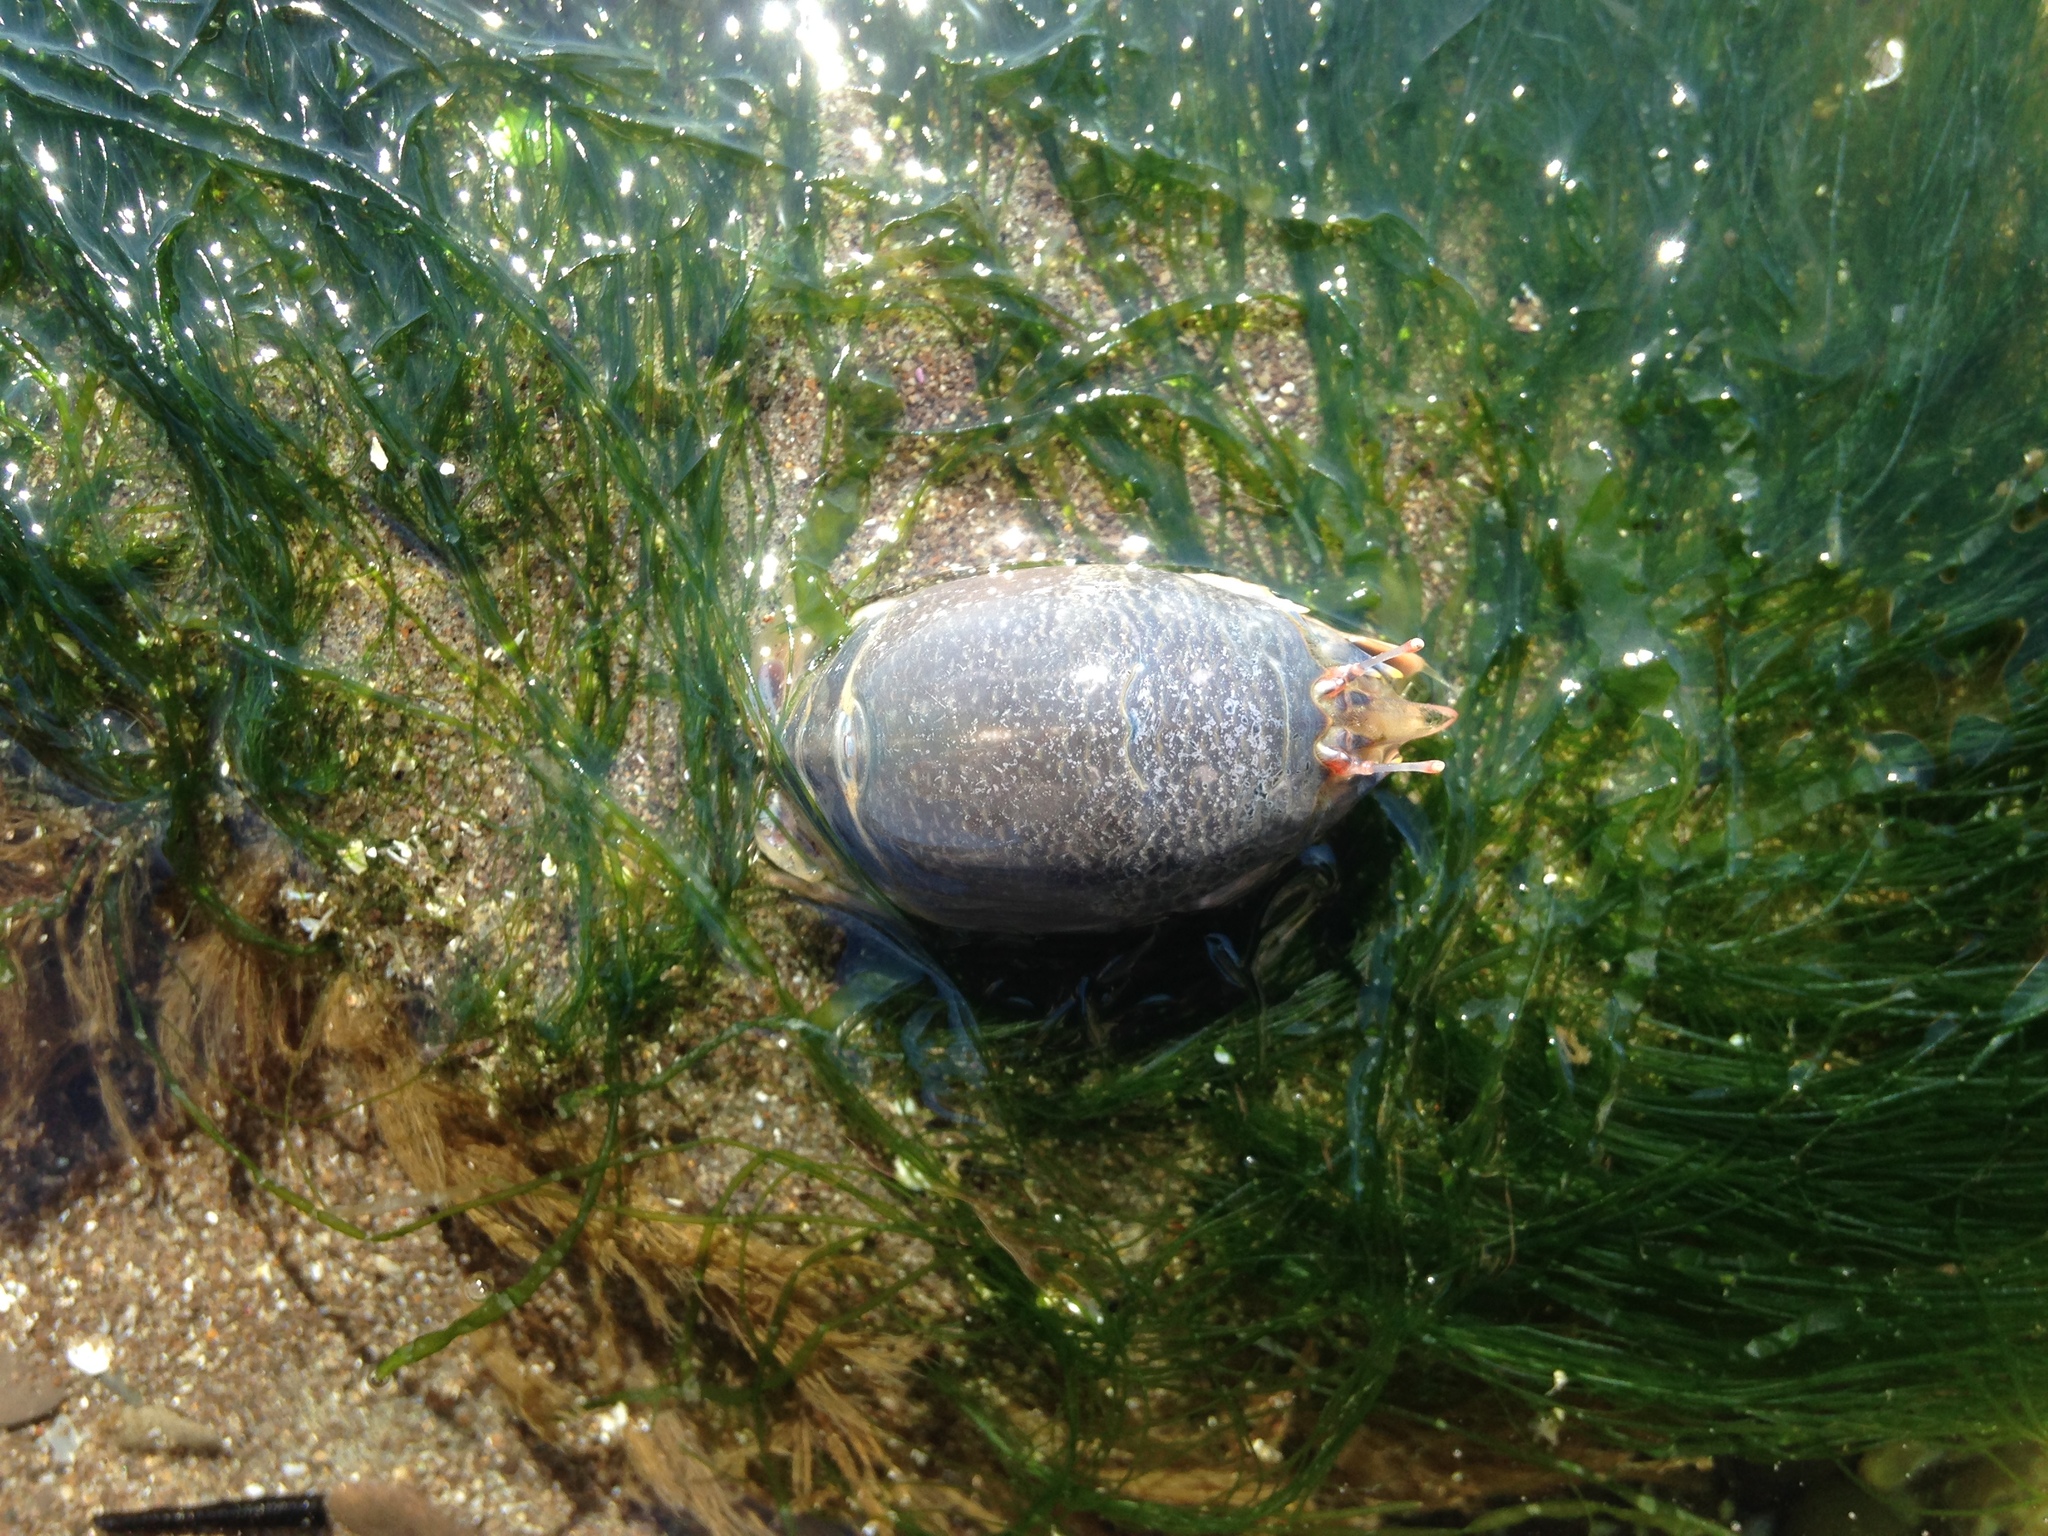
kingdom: Animalia
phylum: Arthropoda
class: Malacostraca
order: Decapoda
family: Hippidae
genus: Emerita
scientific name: Emerita analoga
